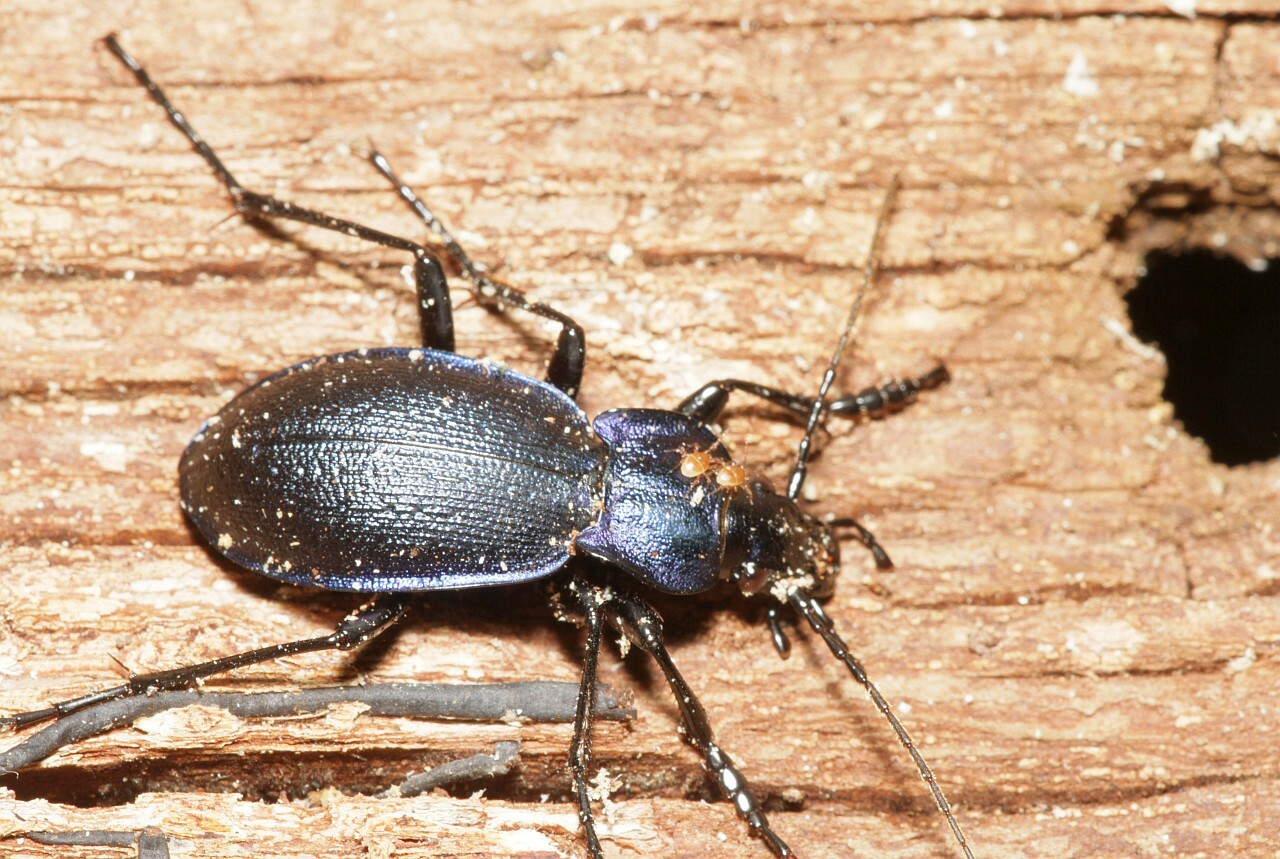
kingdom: Animalia
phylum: Arthropoda
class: Insecta
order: Coleoptera
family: Carabidae
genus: Carabus
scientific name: Carabus problematicus
